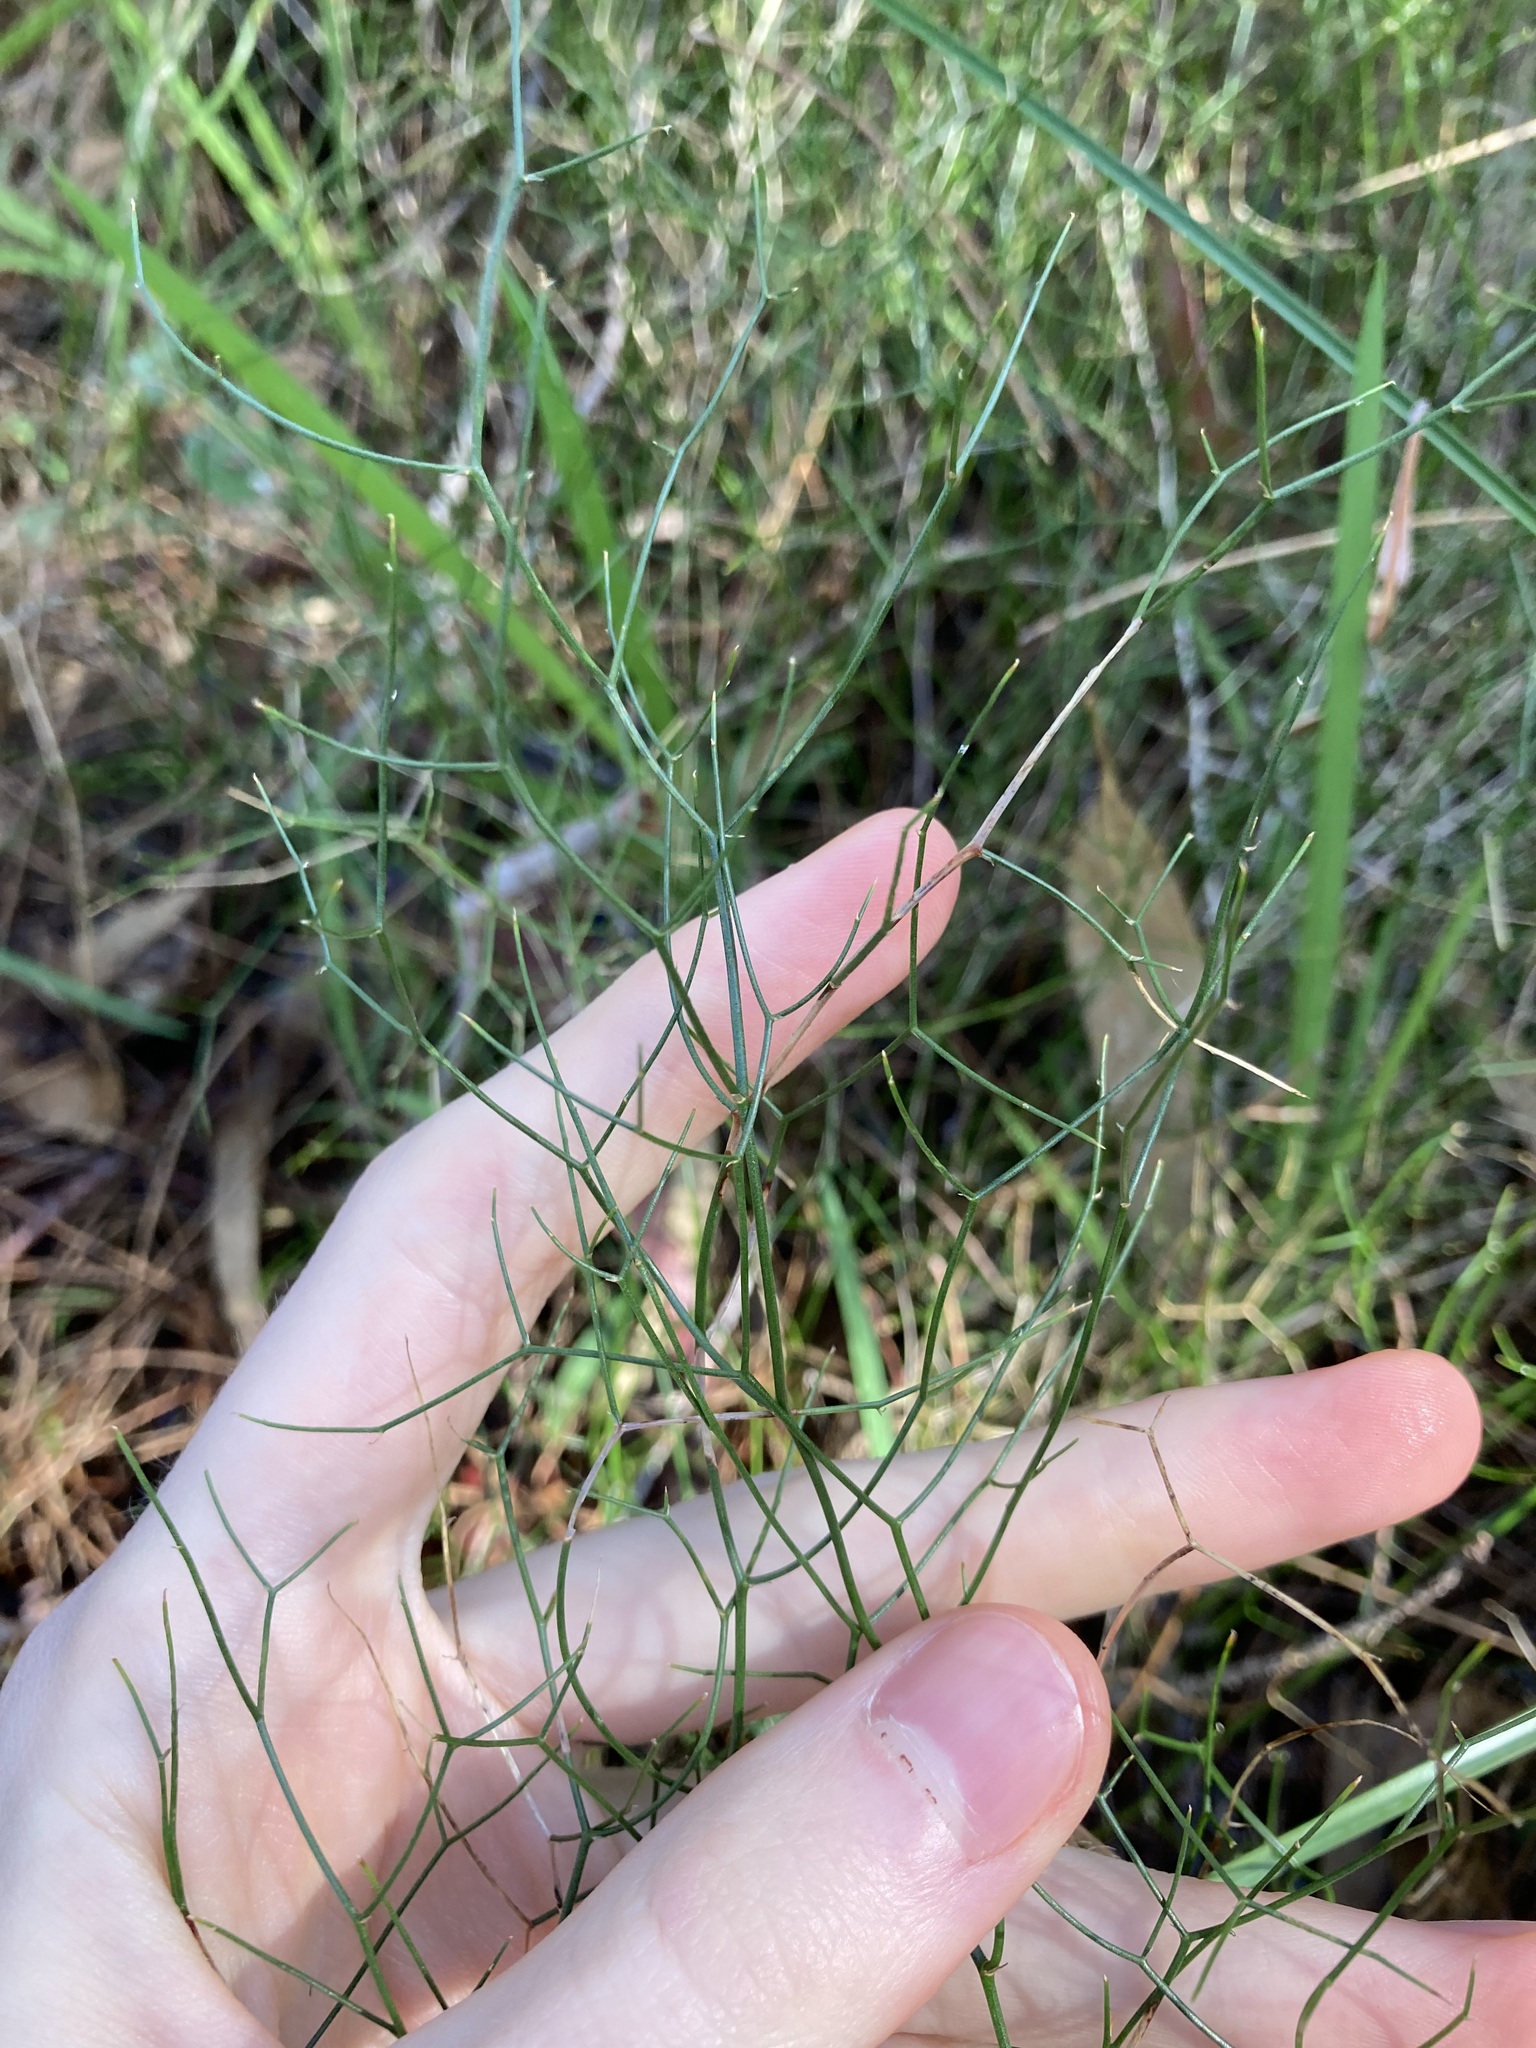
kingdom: Plantae
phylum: Tracheophyta
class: Liliopsida
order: Asparagales
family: Asphodelaceae
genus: Corynotheca
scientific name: Corynotheca micrantha
